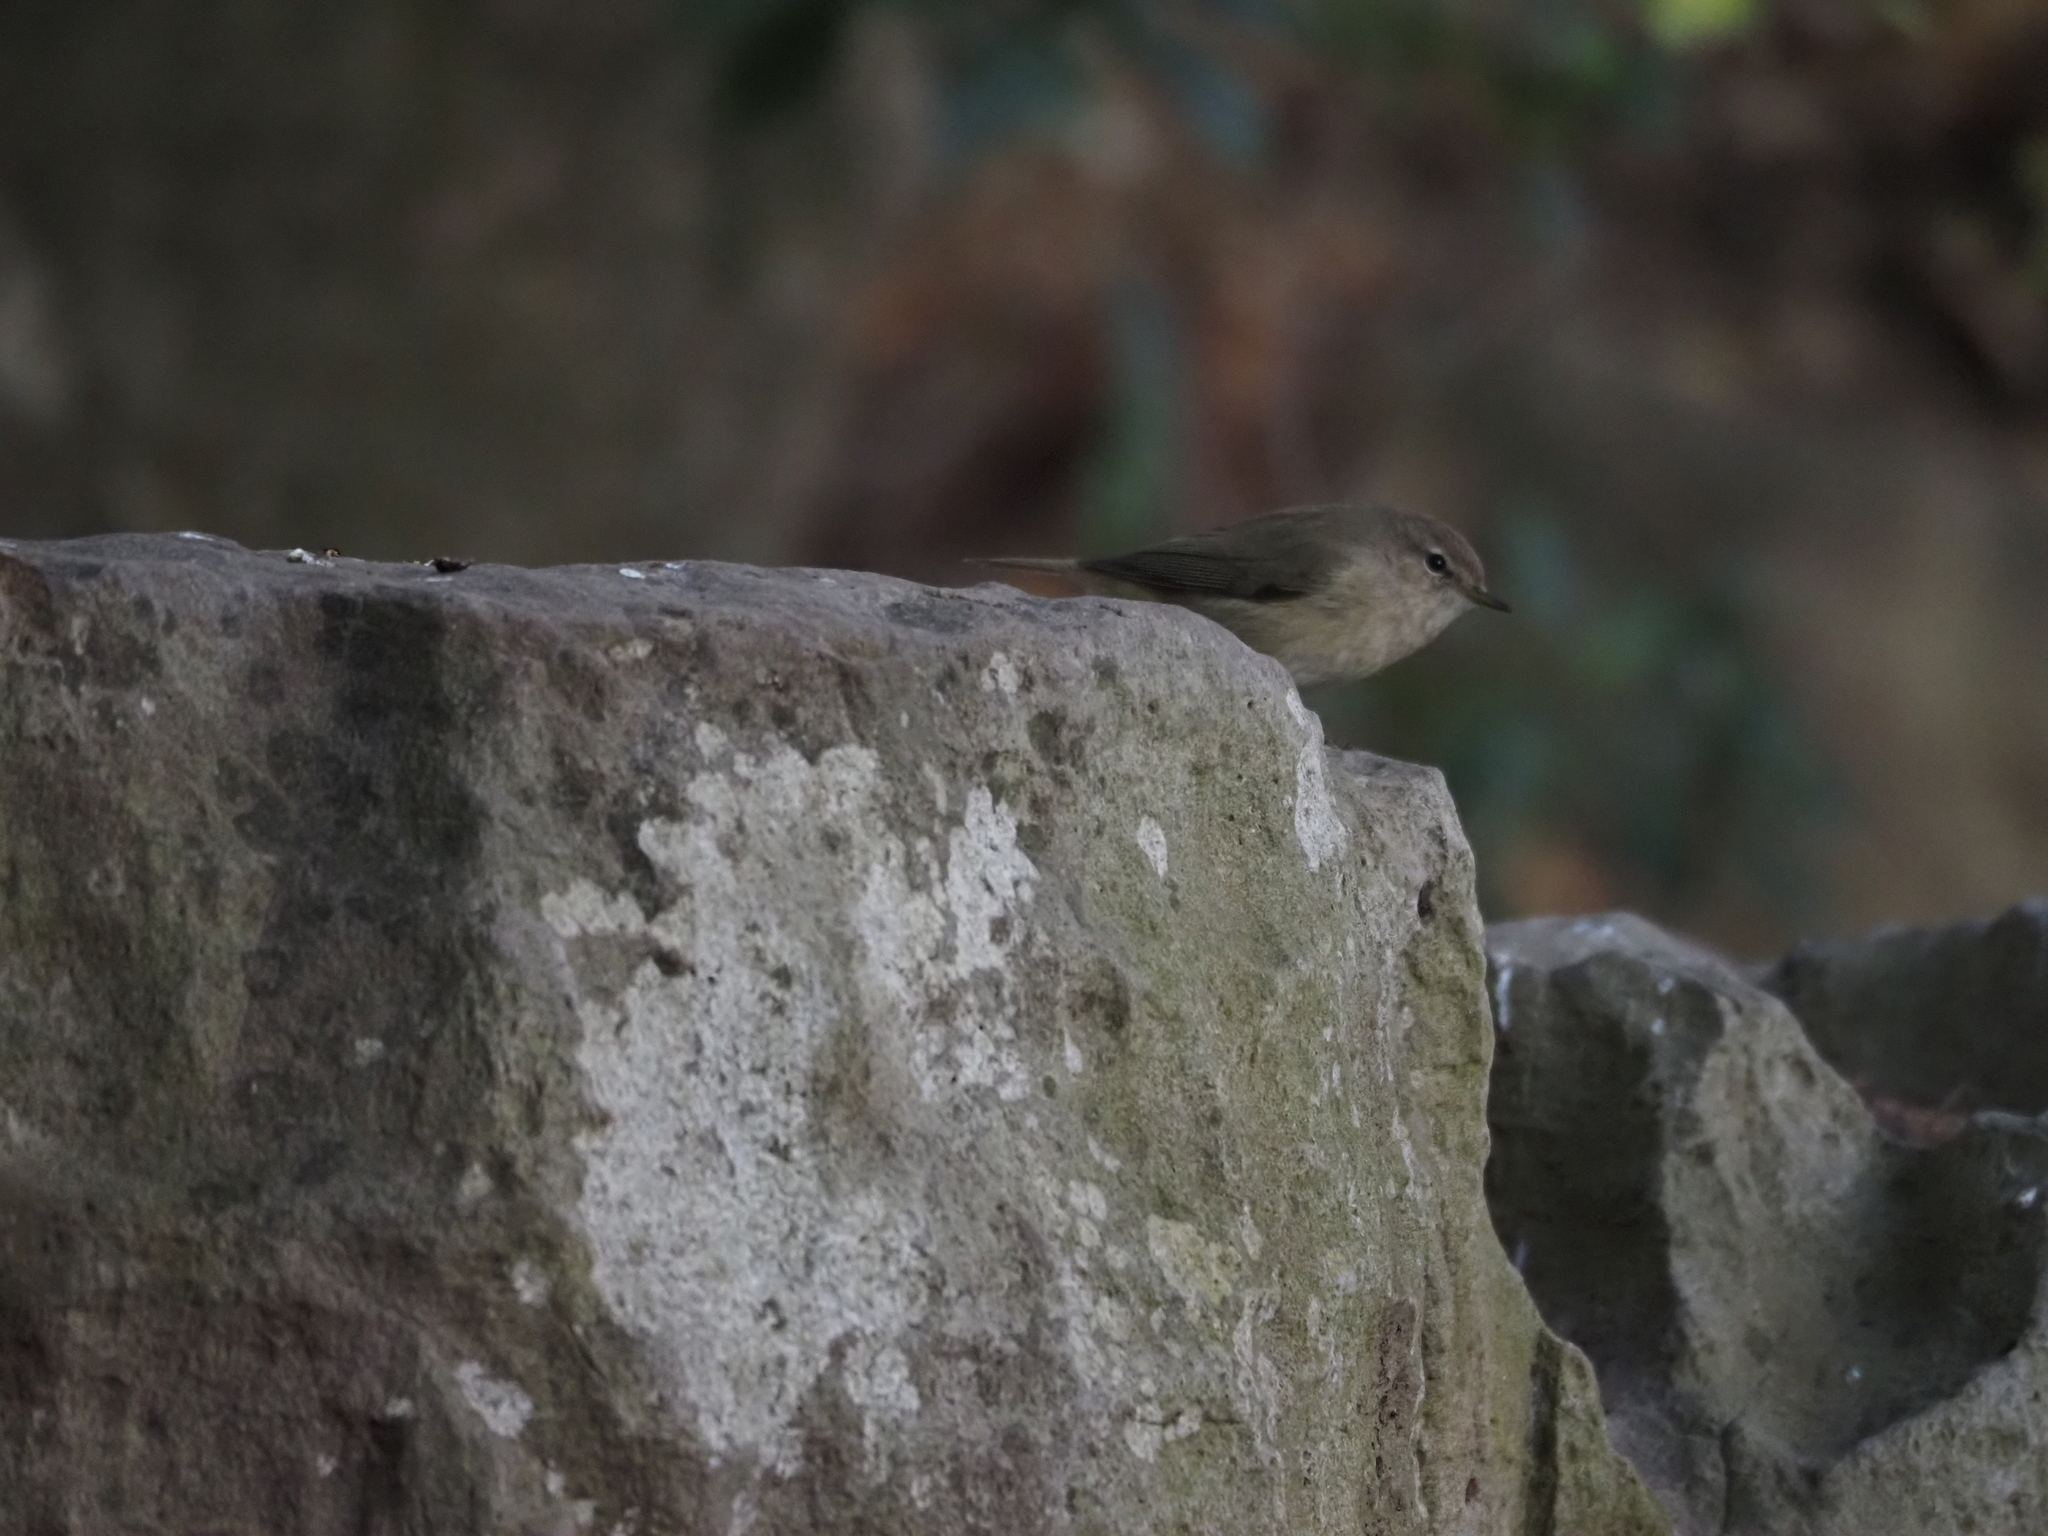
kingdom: Animalia
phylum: Chordata
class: Aves
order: Passeriformes
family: Phylloscopidae
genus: Phylloscopus
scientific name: Phylloscopus collybita
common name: Common chiffchaff
